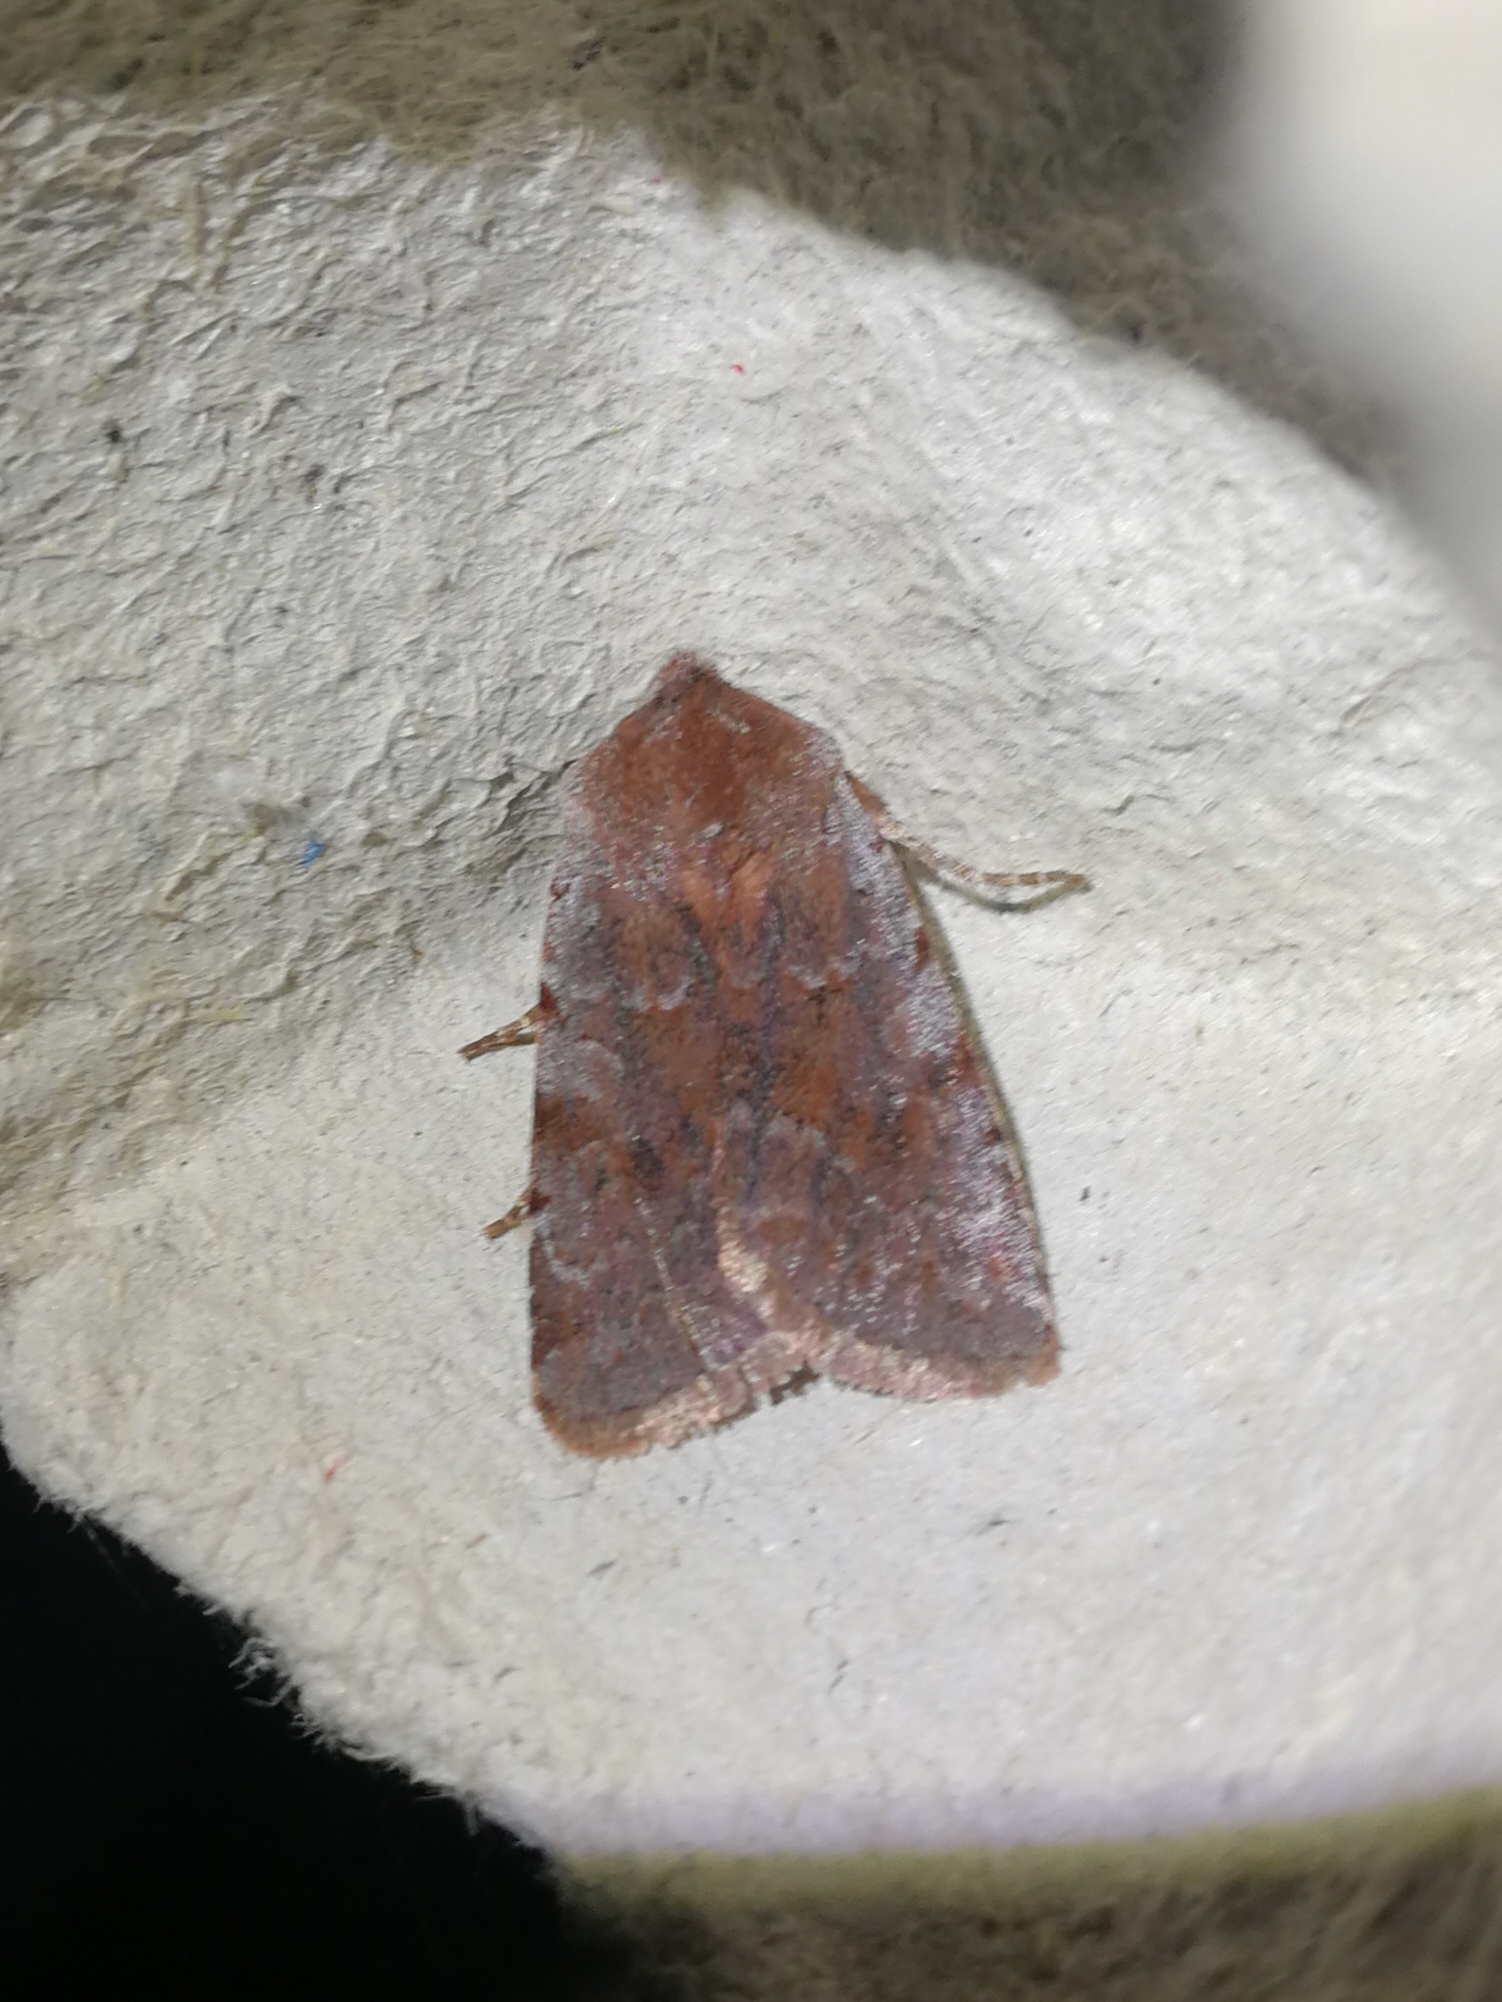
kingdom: Animalia
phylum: Arthropoda
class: Insecta
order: Lepidoptera
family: Noctuidae
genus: Cerastis
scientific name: Cerastis rubricosa
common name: Red chestnut
